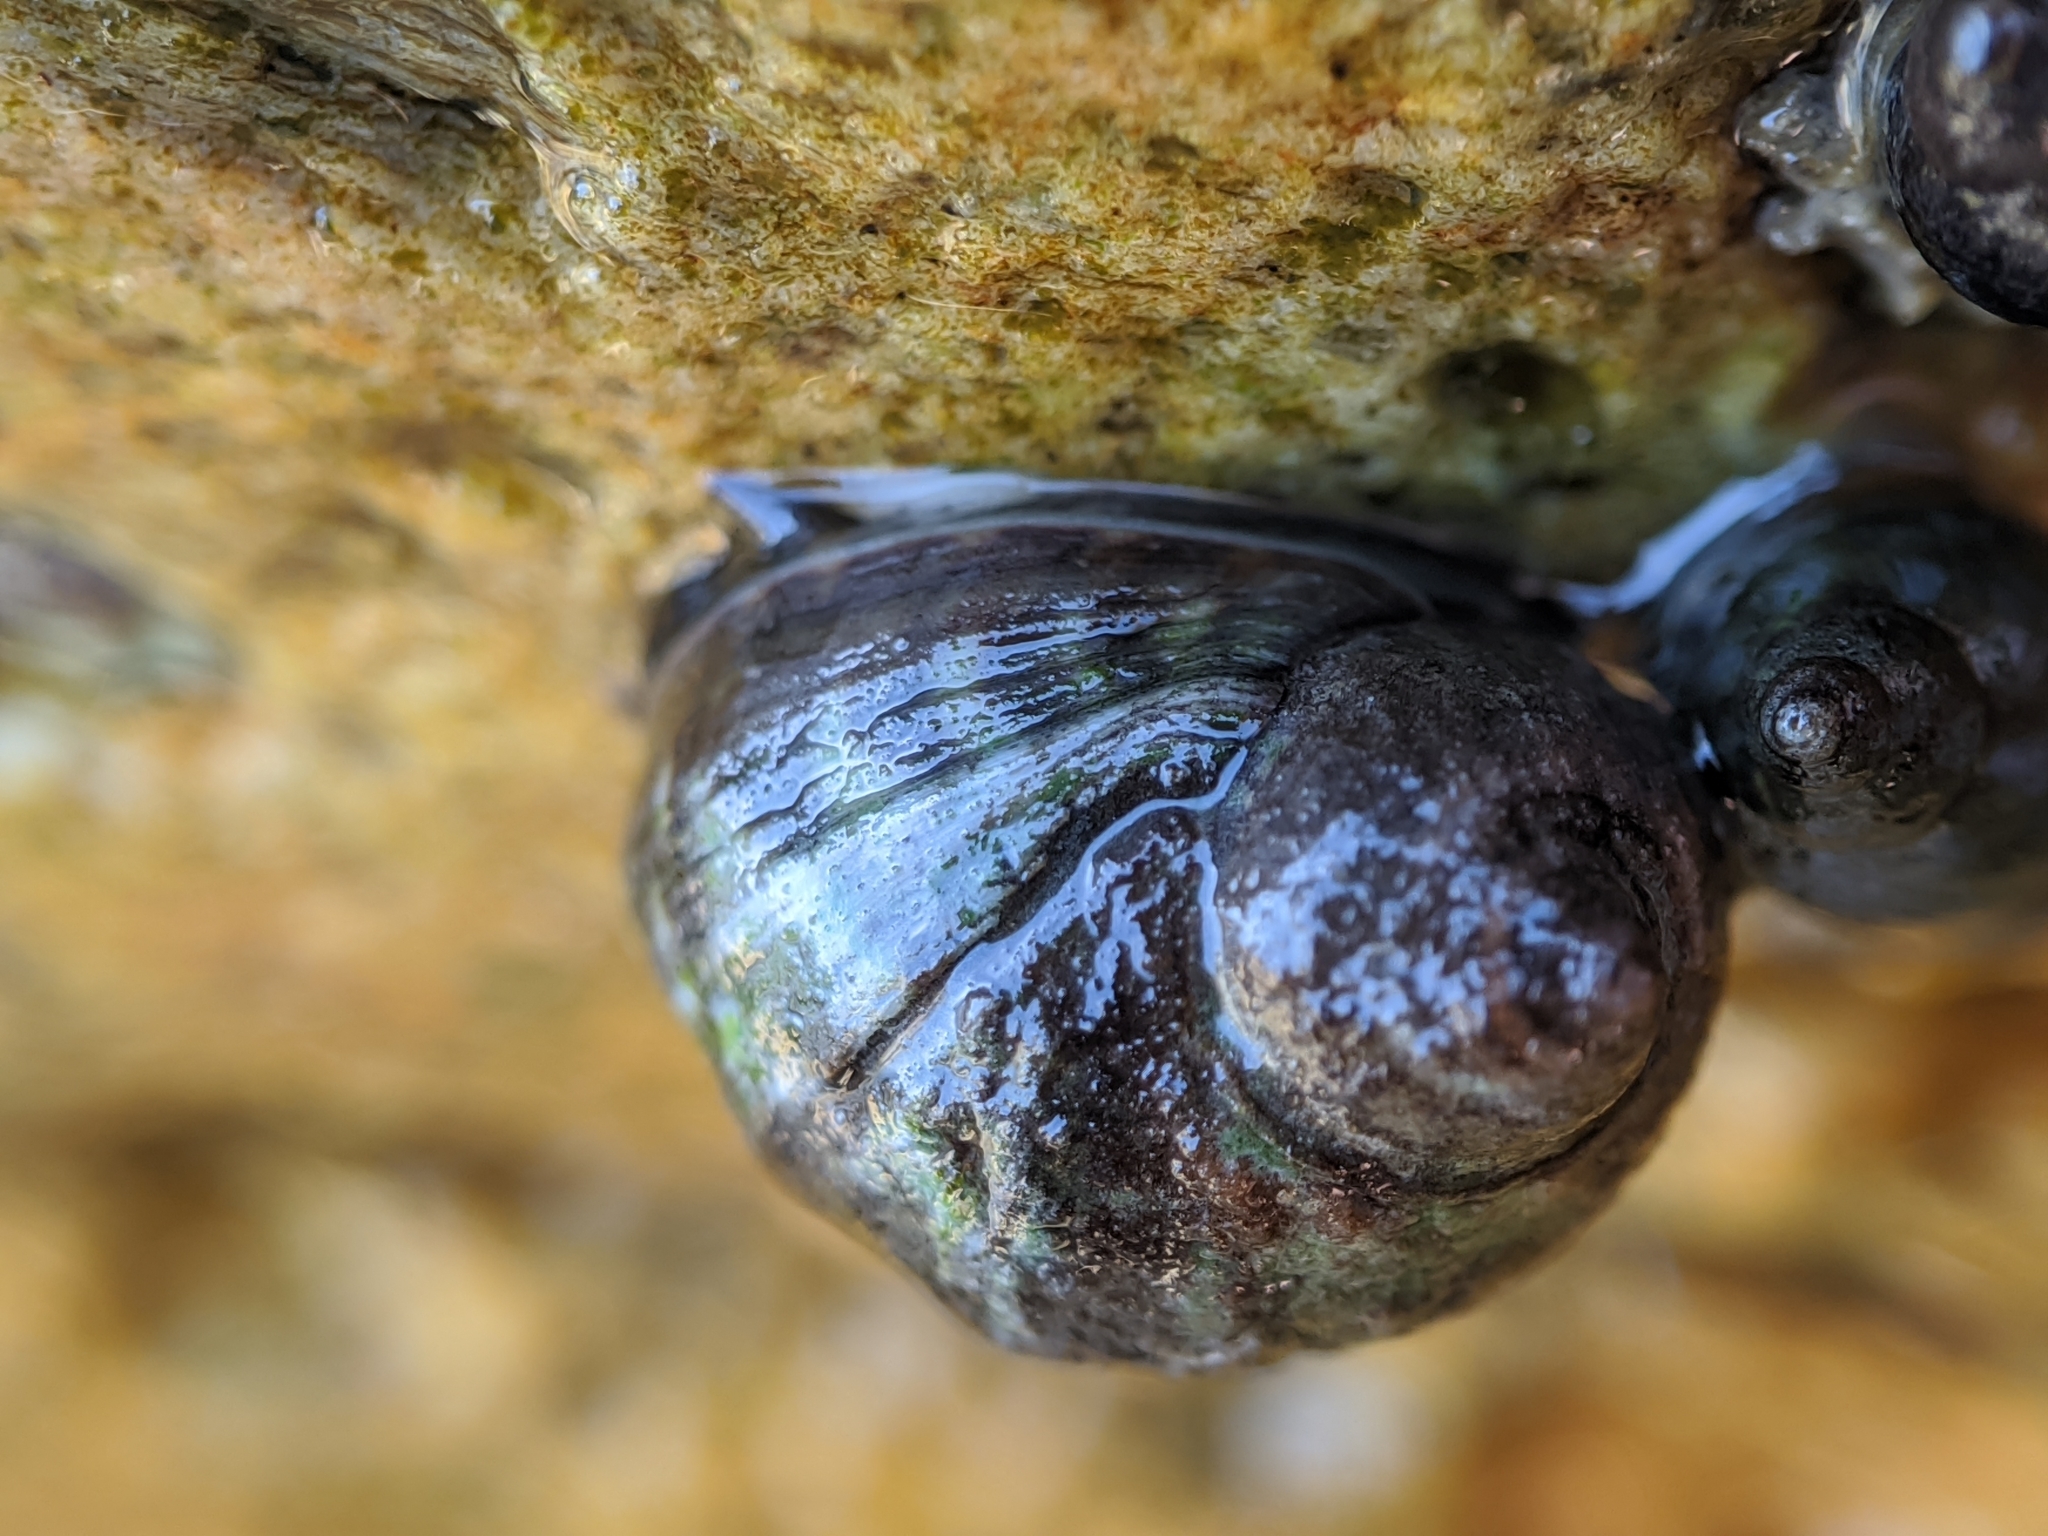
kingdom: Animalia
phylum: Mollusca
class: Gastropoda
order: Littorinimorpha
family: Littorinidae
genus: Littorina
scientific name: Littorina keenae
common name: Eroded periwinkle
